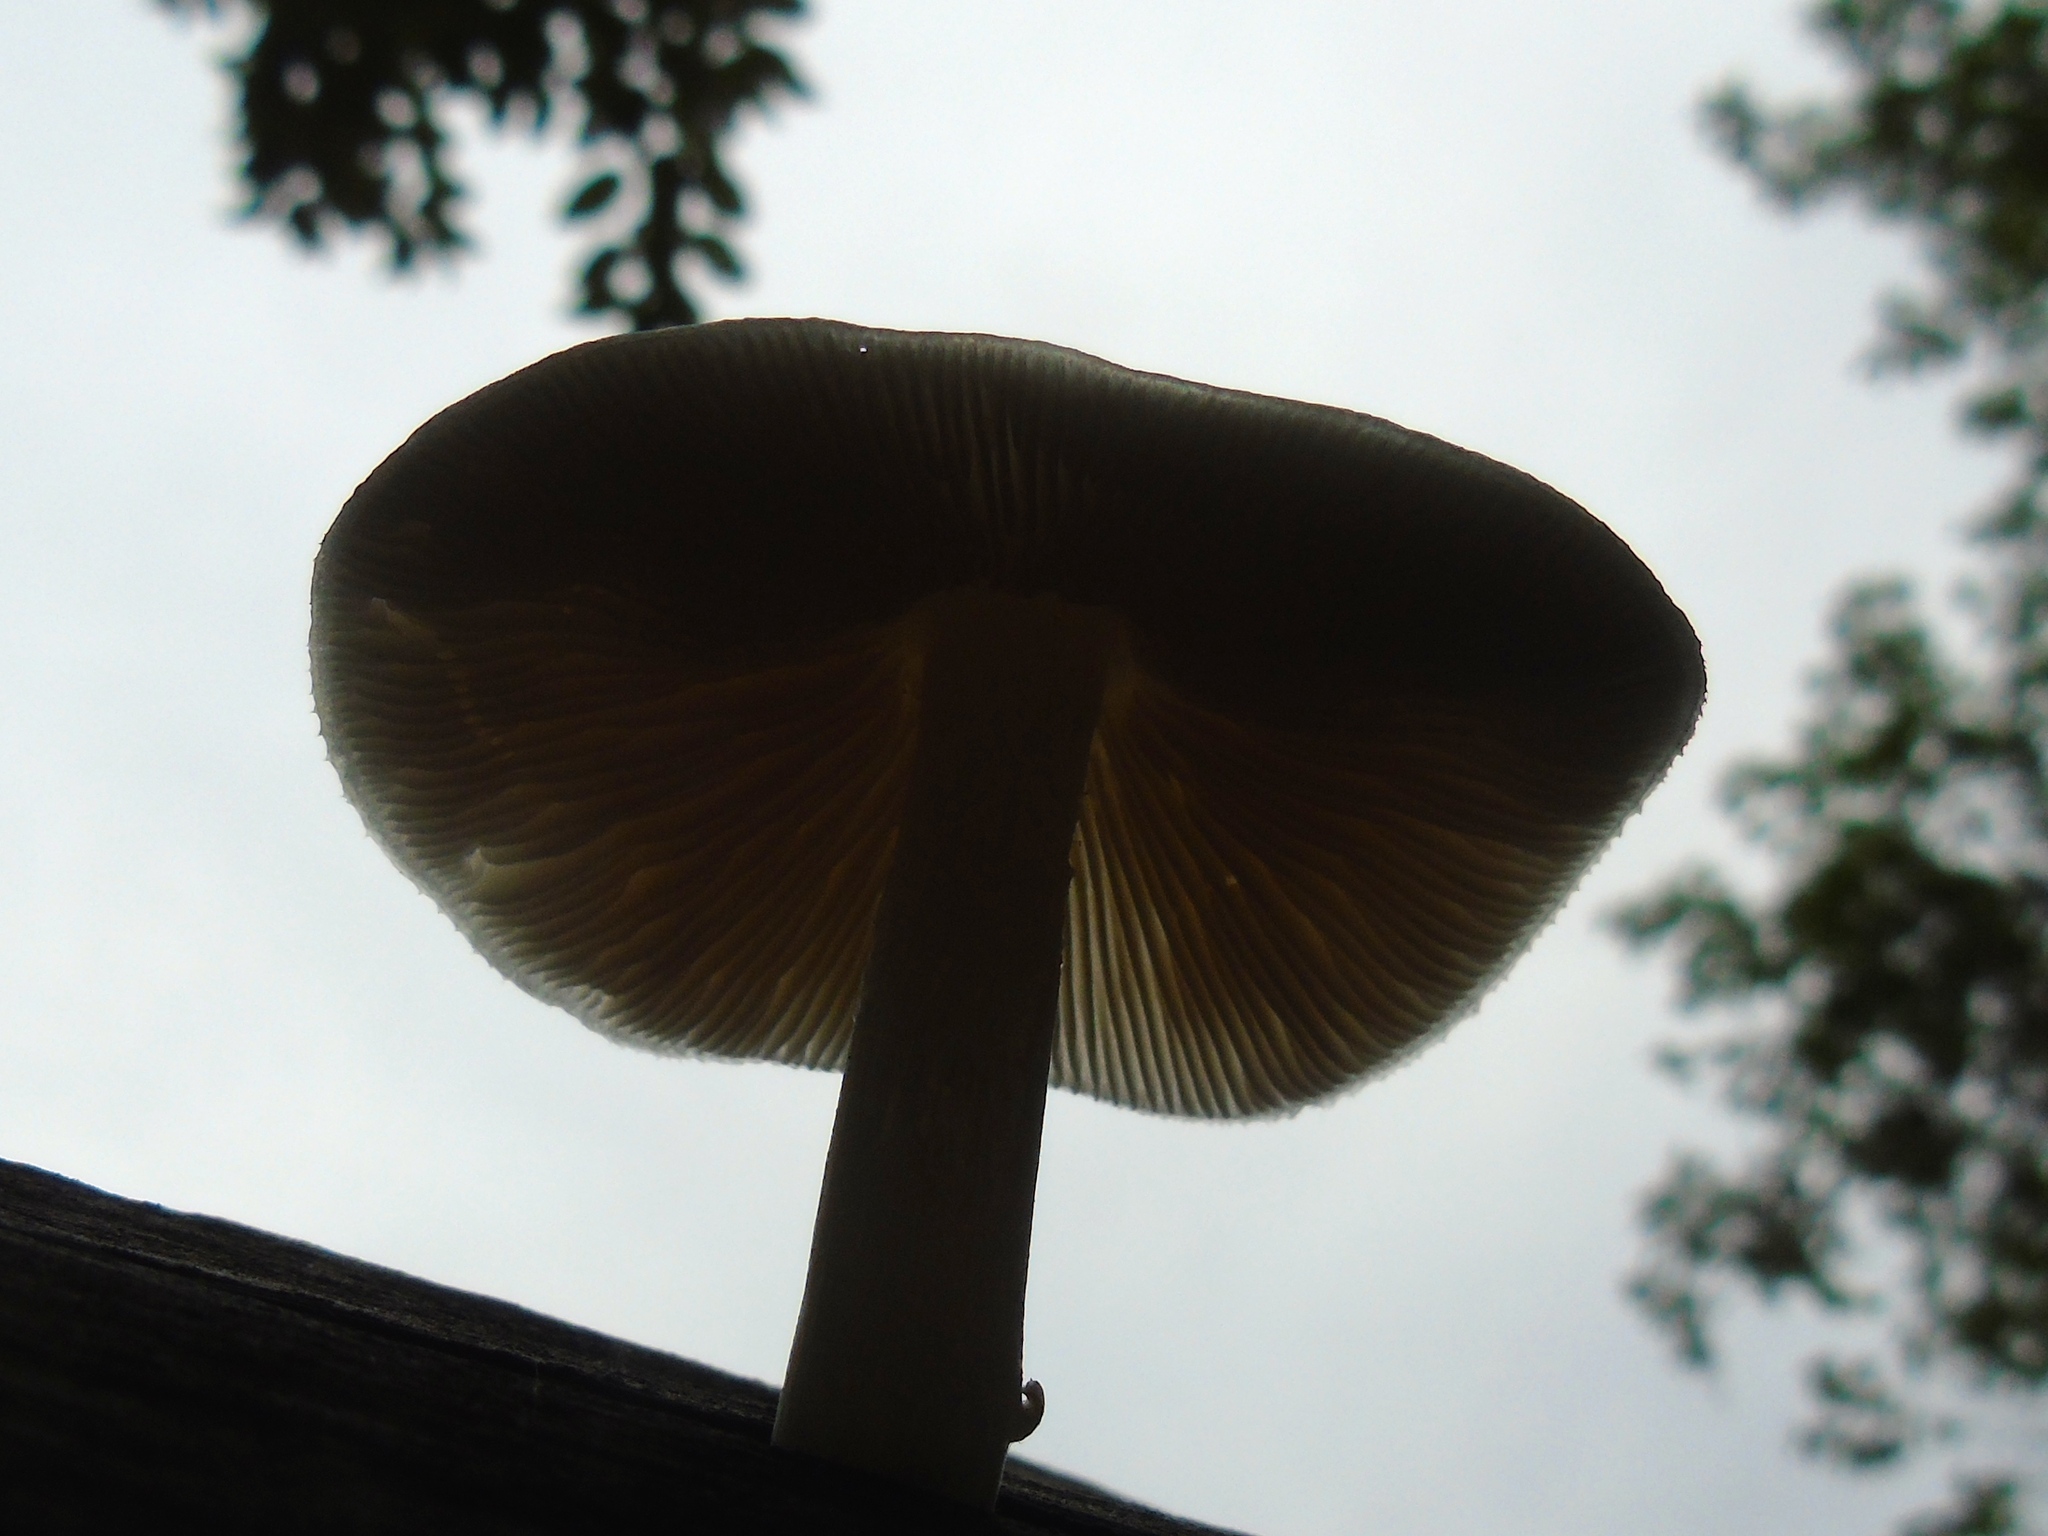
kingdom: Fungi
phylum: Basidiomycota
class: Agaricomycetes
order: Agaricales
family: Pluteaceae
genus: Pluteus
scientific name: Pluteus
